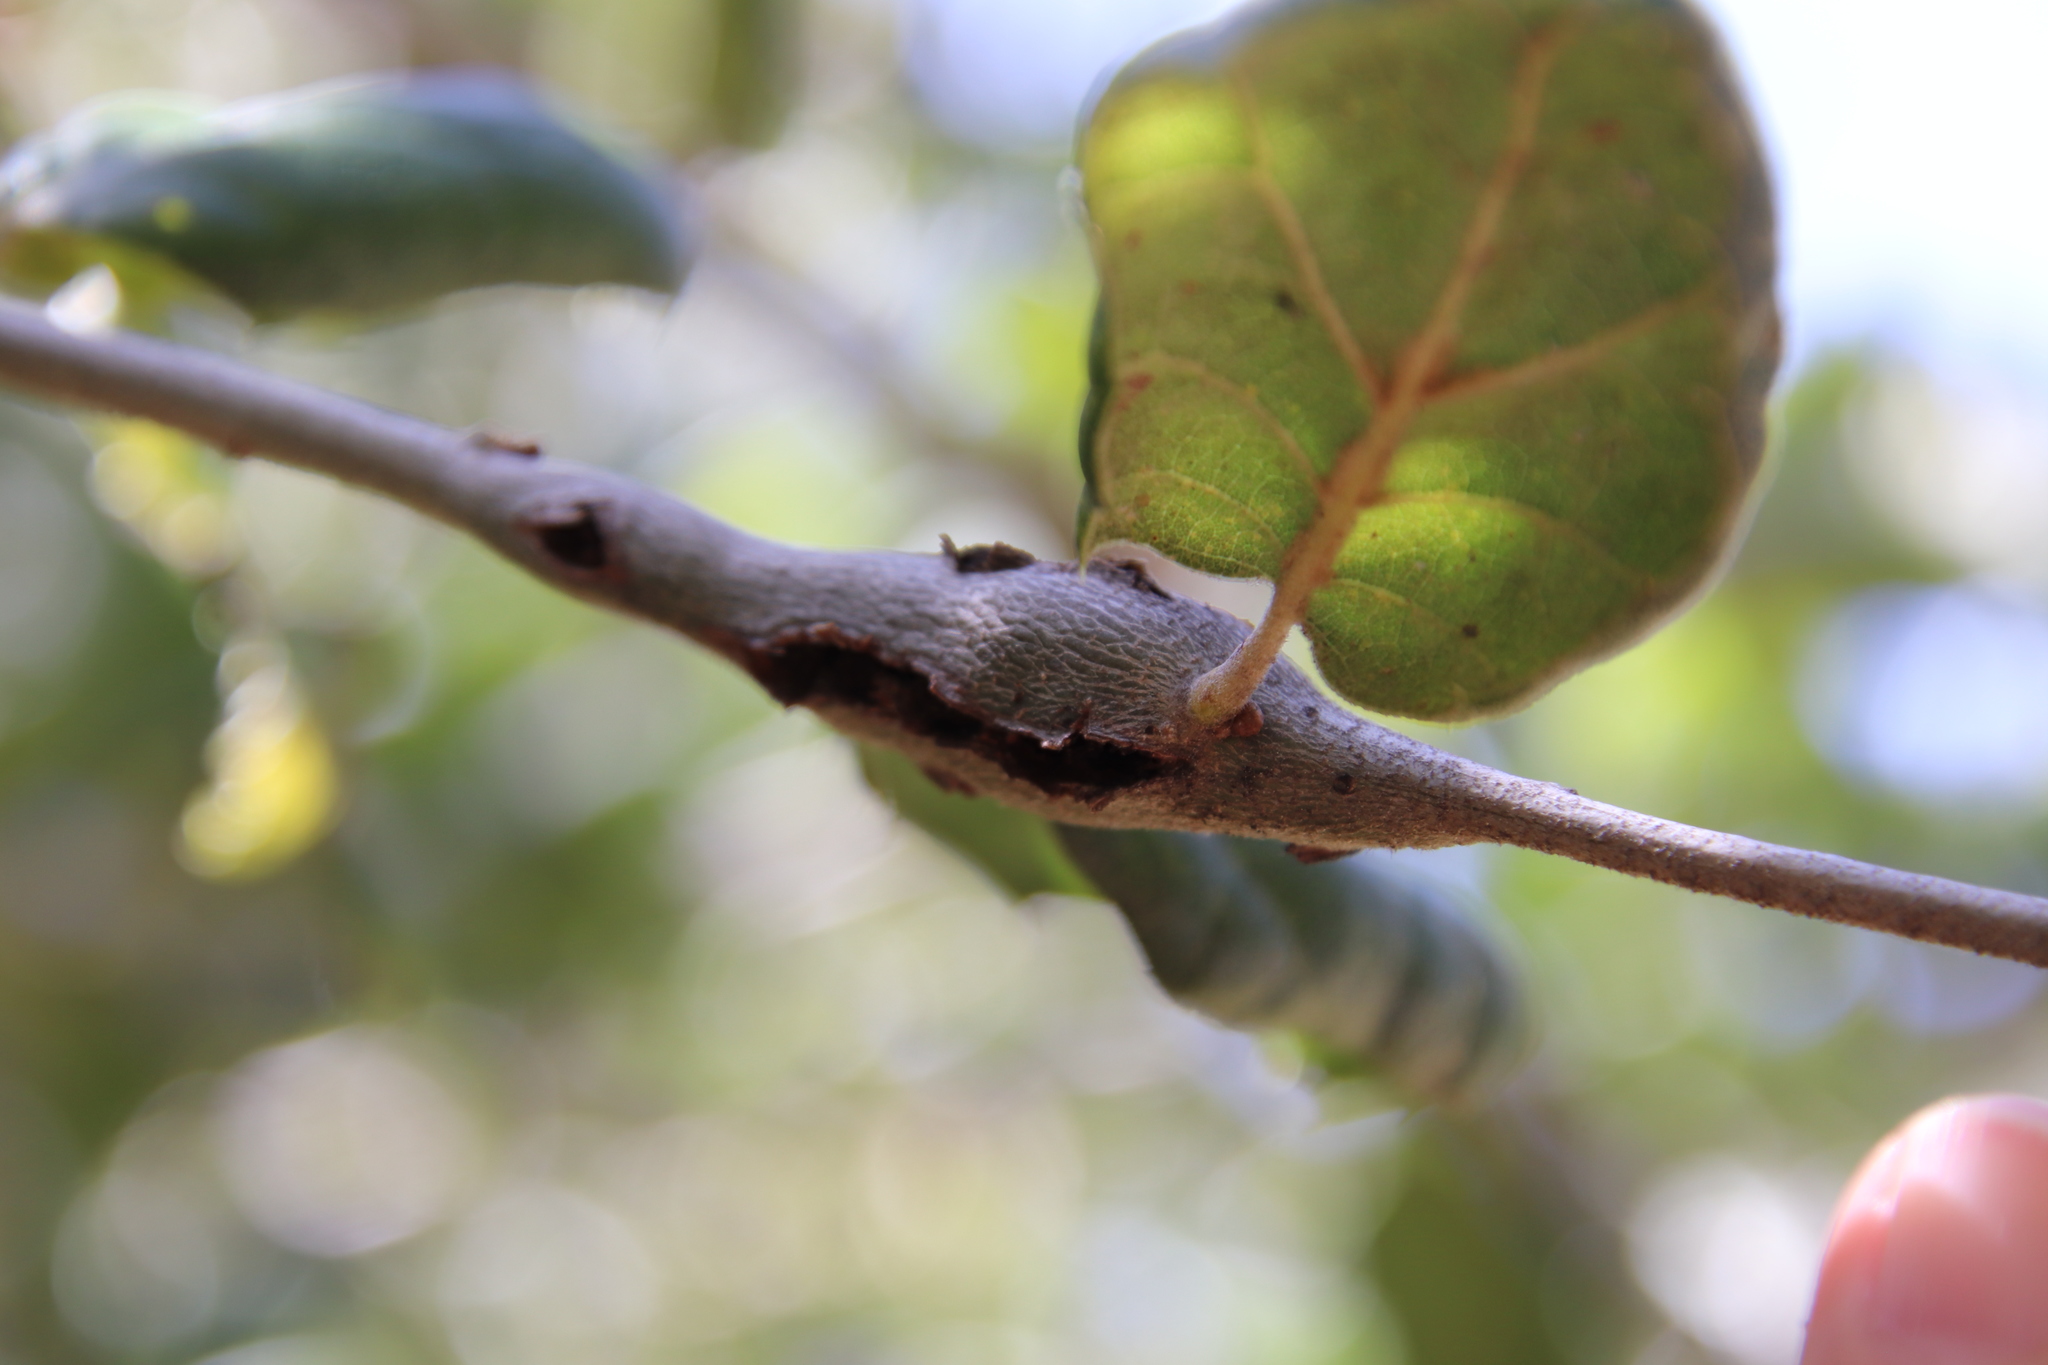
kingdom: Animalia
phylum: Arthropoda
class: Insecta
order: Hymenoptera
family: Cynipidae
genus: Callirhytis
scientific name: Callirhytis
